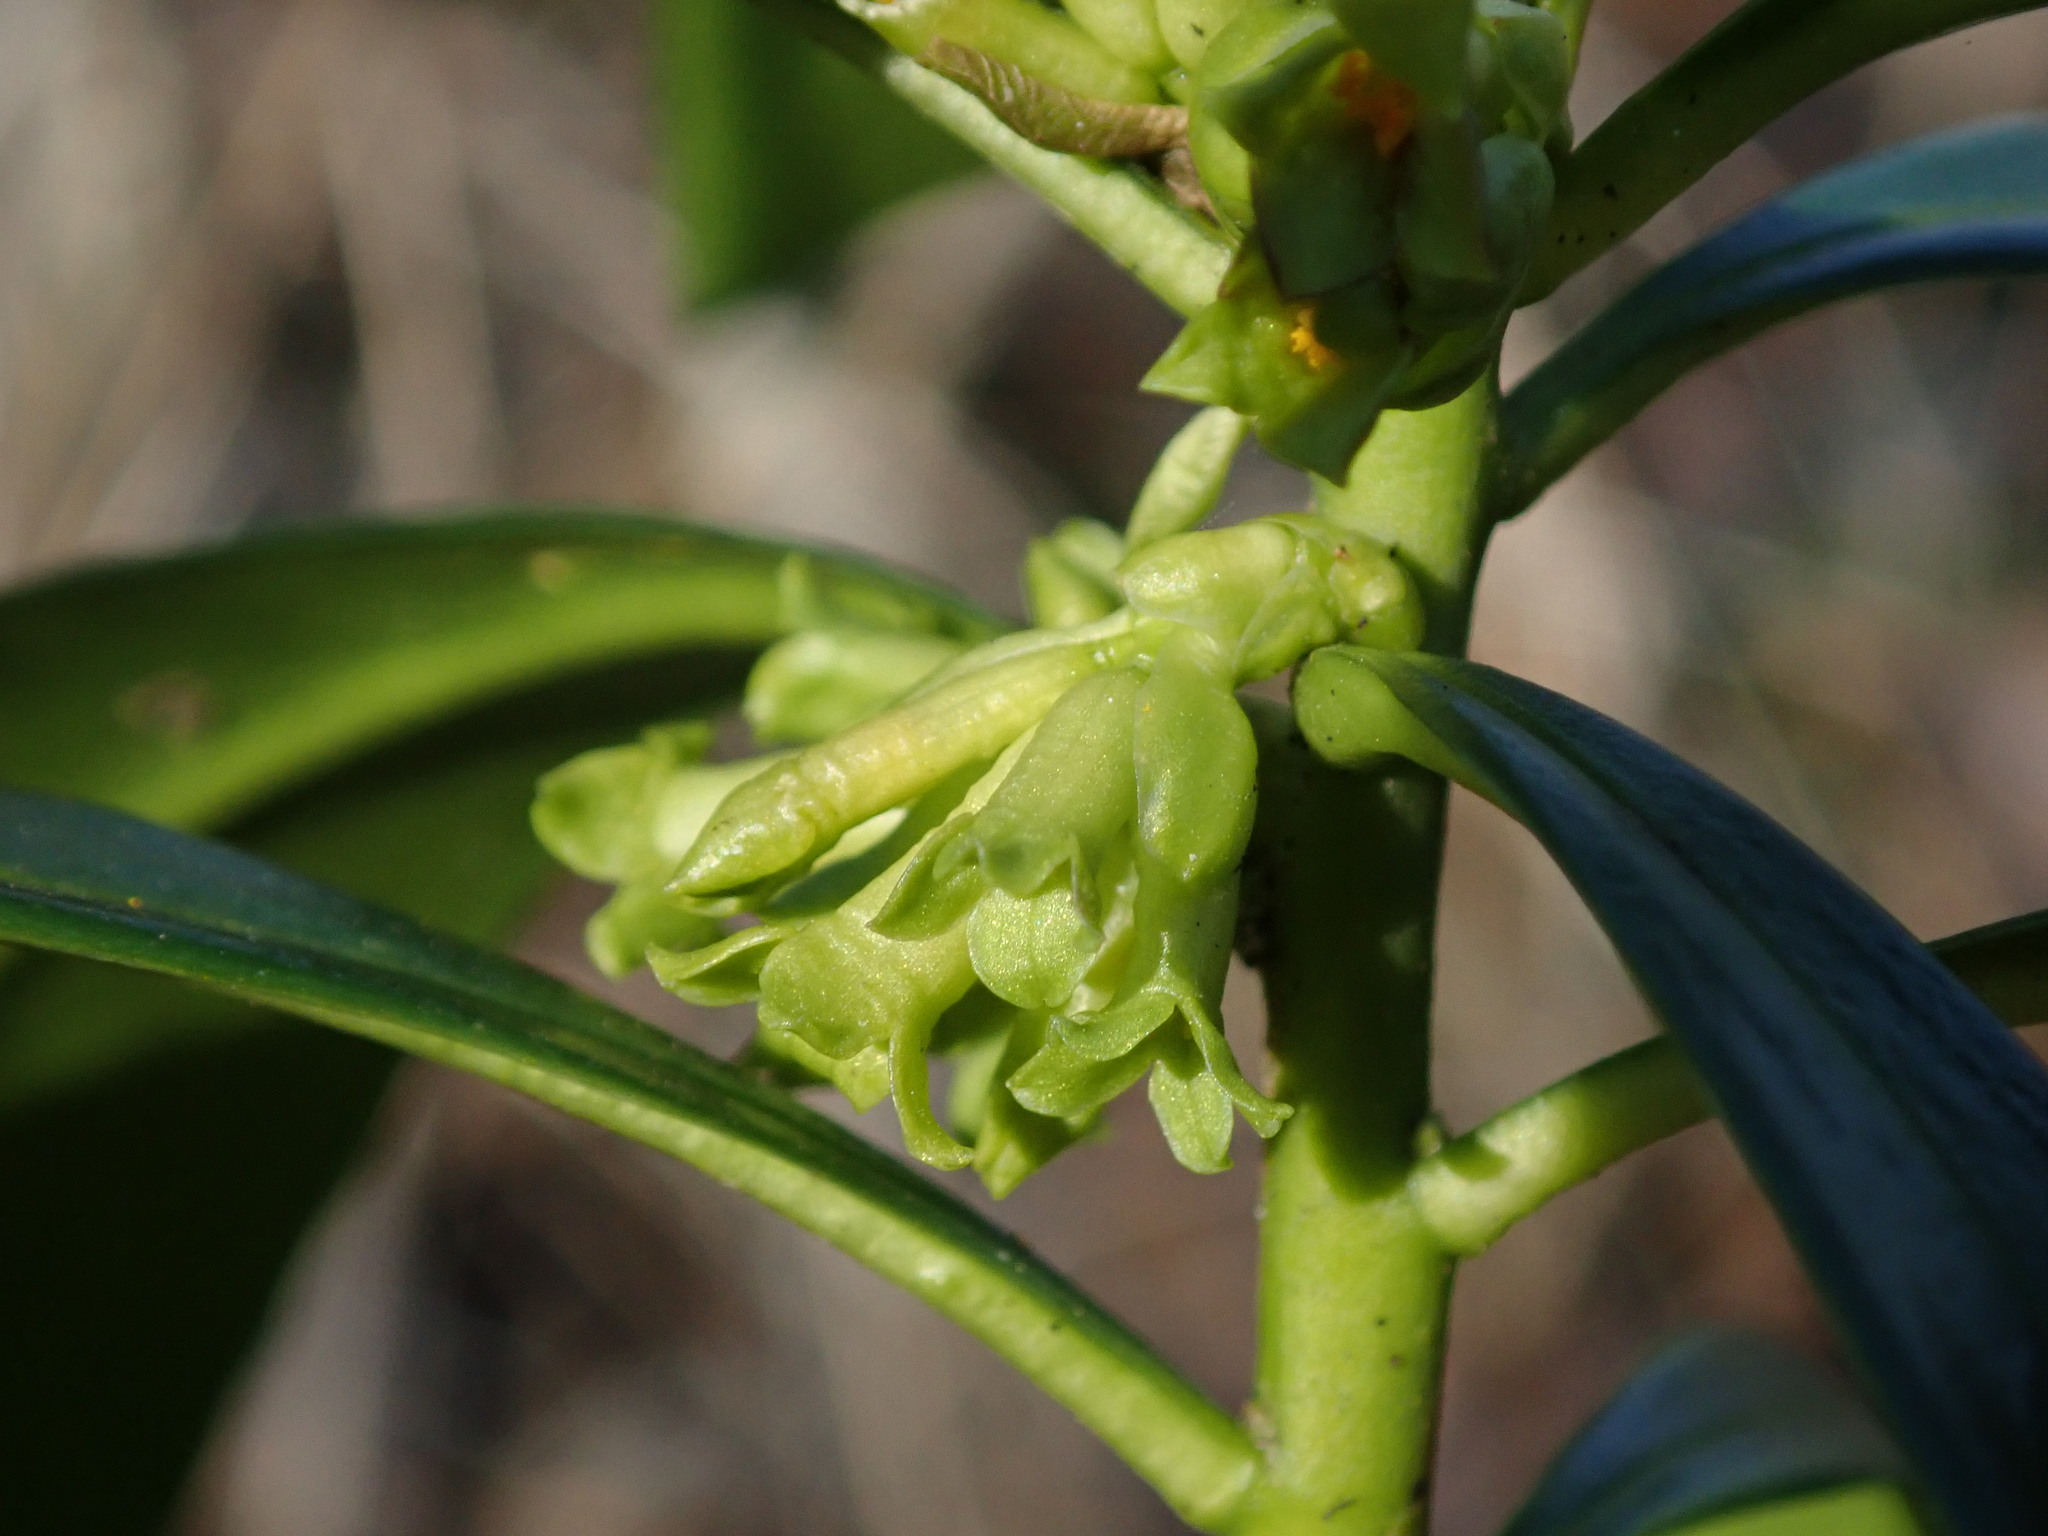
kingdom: Plantae
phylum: Tracheophyta
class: Magnoliopsida
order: Malvales
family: Thymelaeaceae
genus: Daphne
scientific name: Daphne laureola
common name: Spurge-laurel
